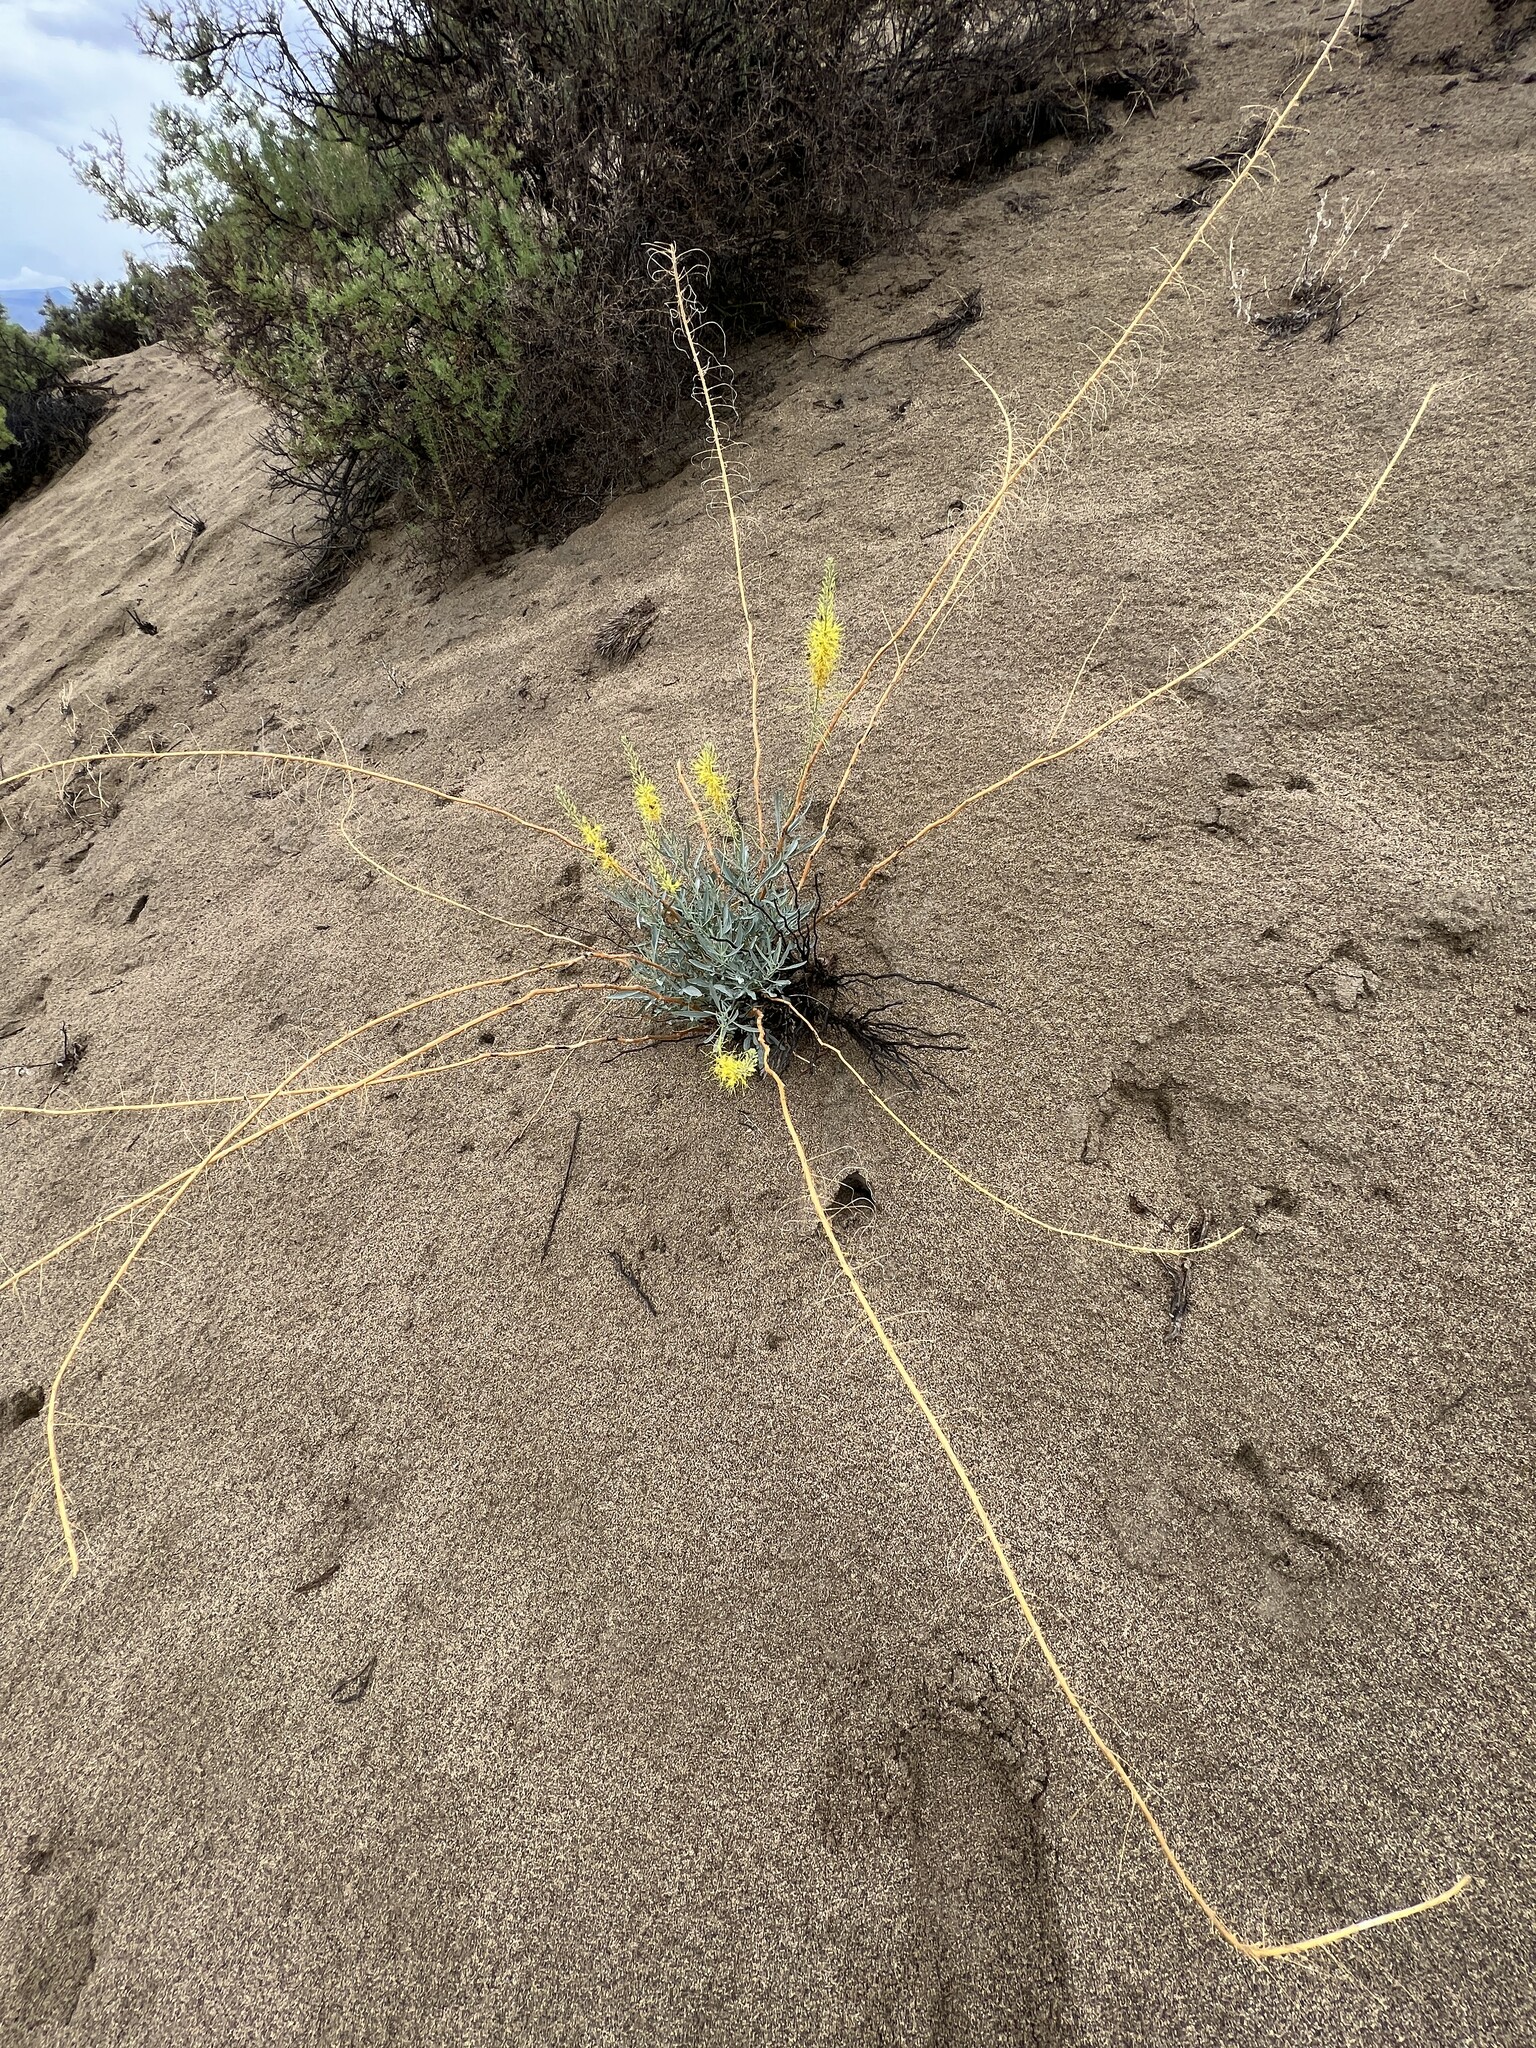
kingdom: Plantae
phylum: Tracheophyta
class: Magnoliopsida
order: Brassicales
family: Brassicaceae
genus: Stanleya
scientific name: Stanleya pinnata
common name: Prince's-plume
